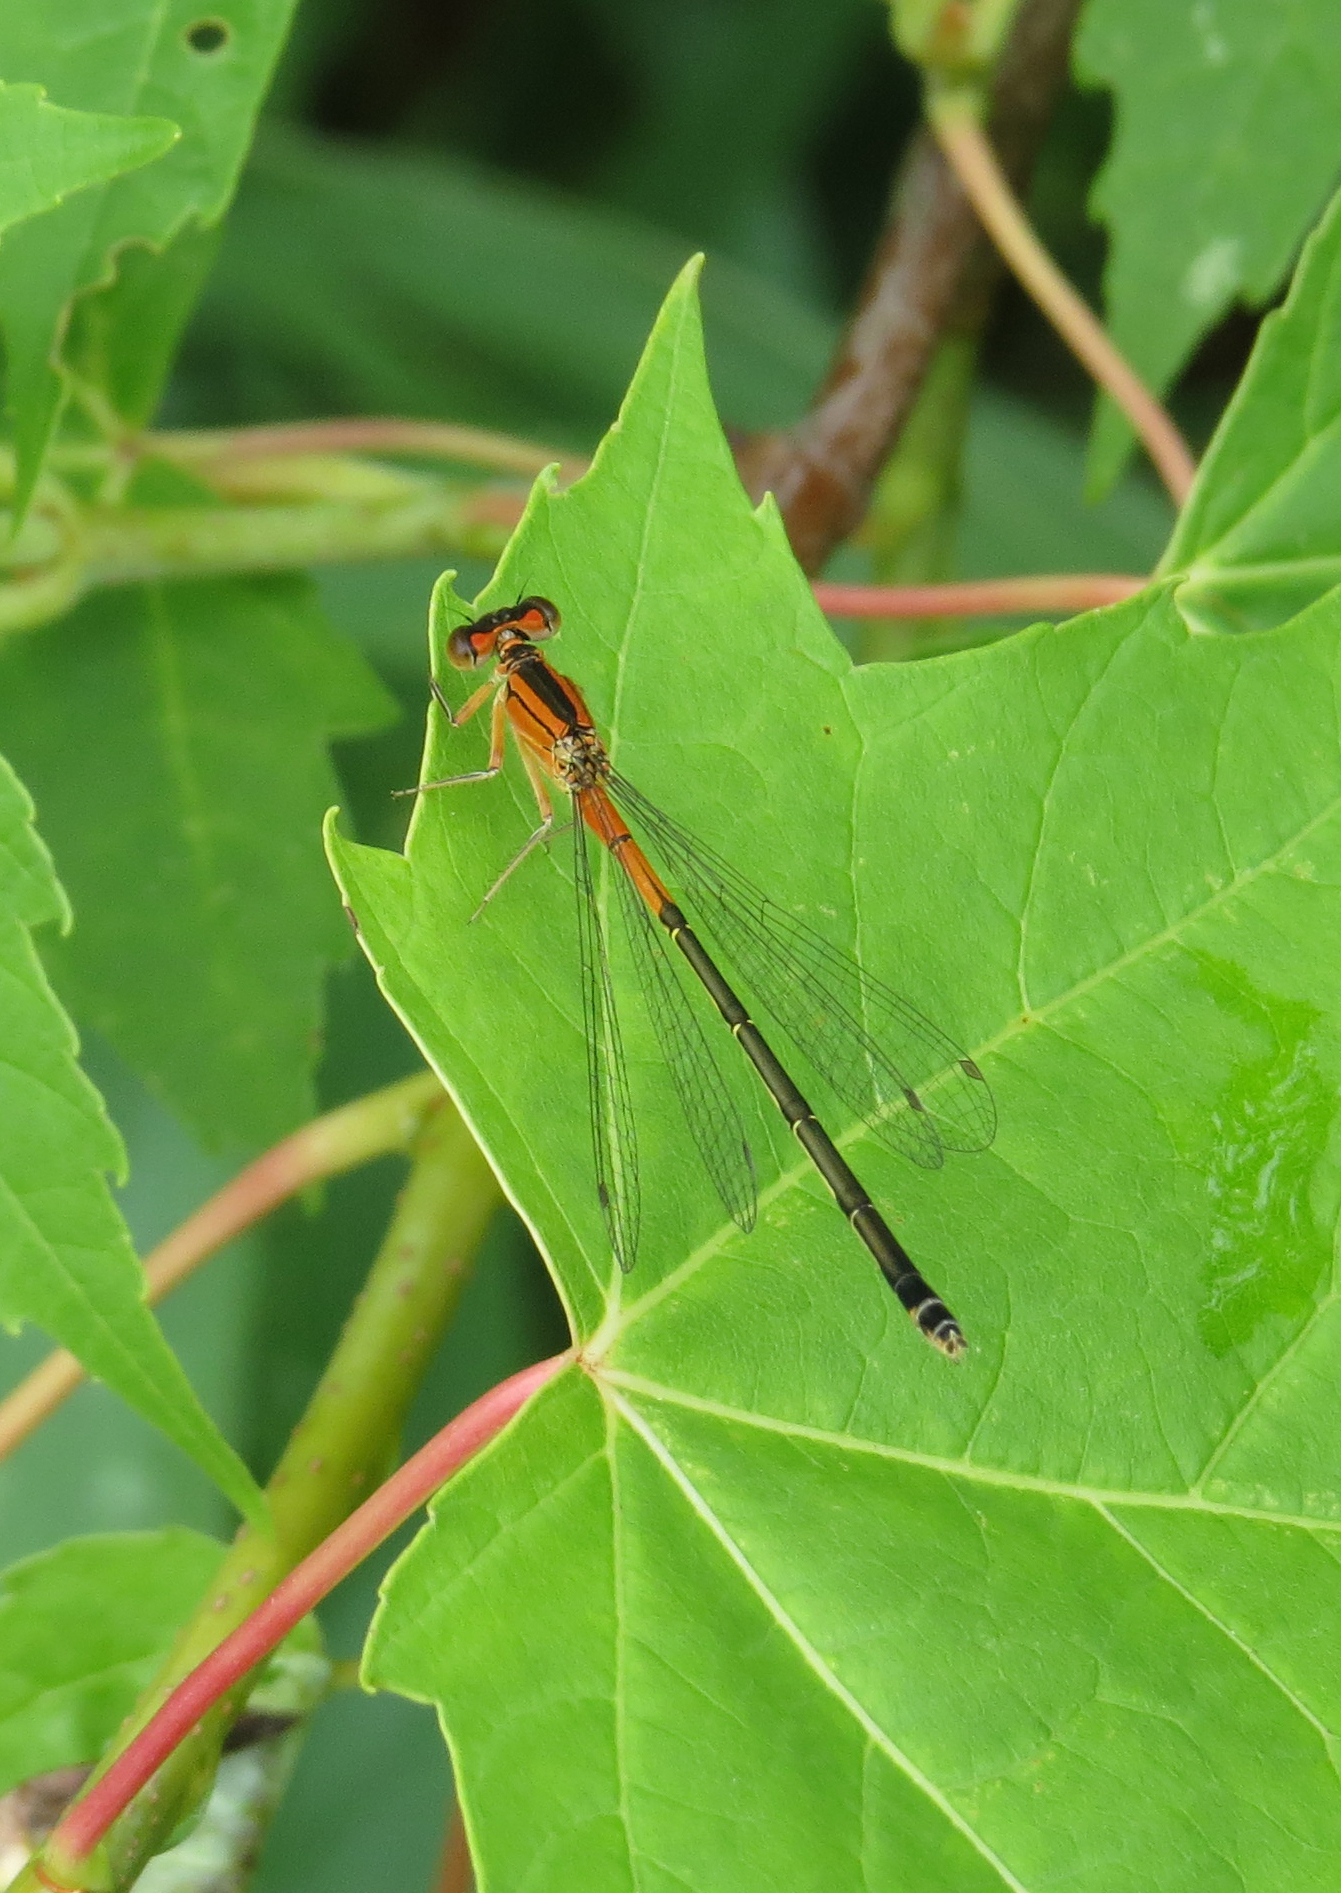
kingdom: Animalia
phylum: Arthropoda
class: Insecta
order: Odonata
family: Coenagrionidae
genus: Ischnura
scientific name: Ischnura verticalis
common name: Eastern forktail
